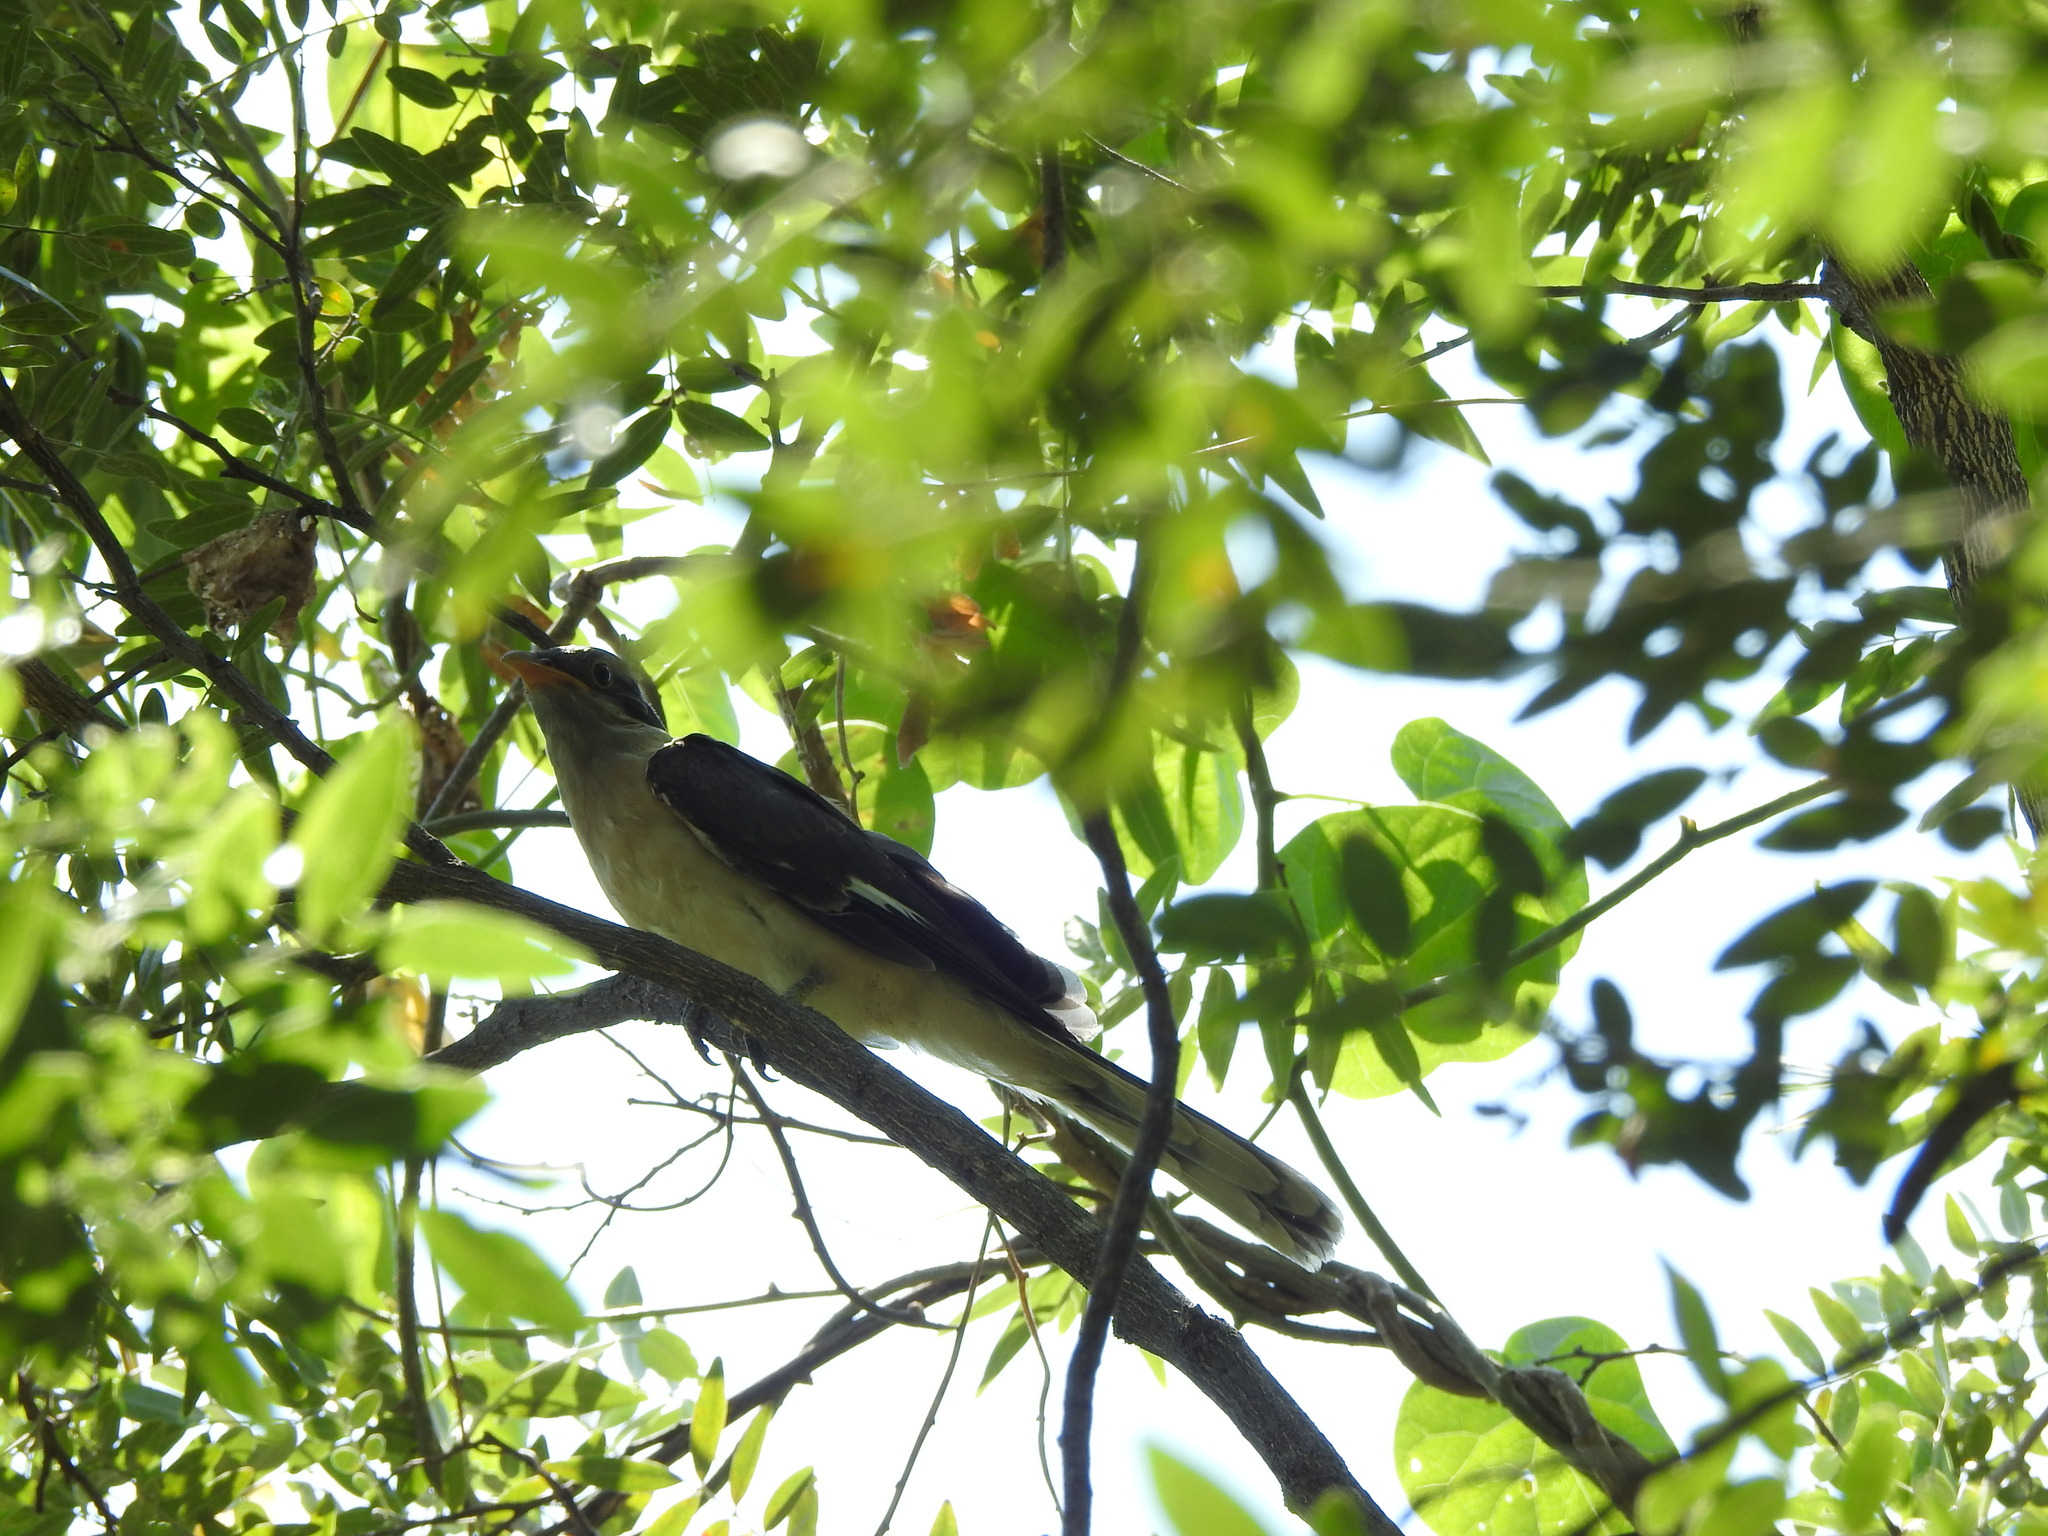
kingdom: Animalia
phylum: Chordata
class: Aves
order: Cuculiformes
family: Cuculidae
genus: Clamator
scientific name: Clamator jacobinus
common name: Jacobin cuckoo
